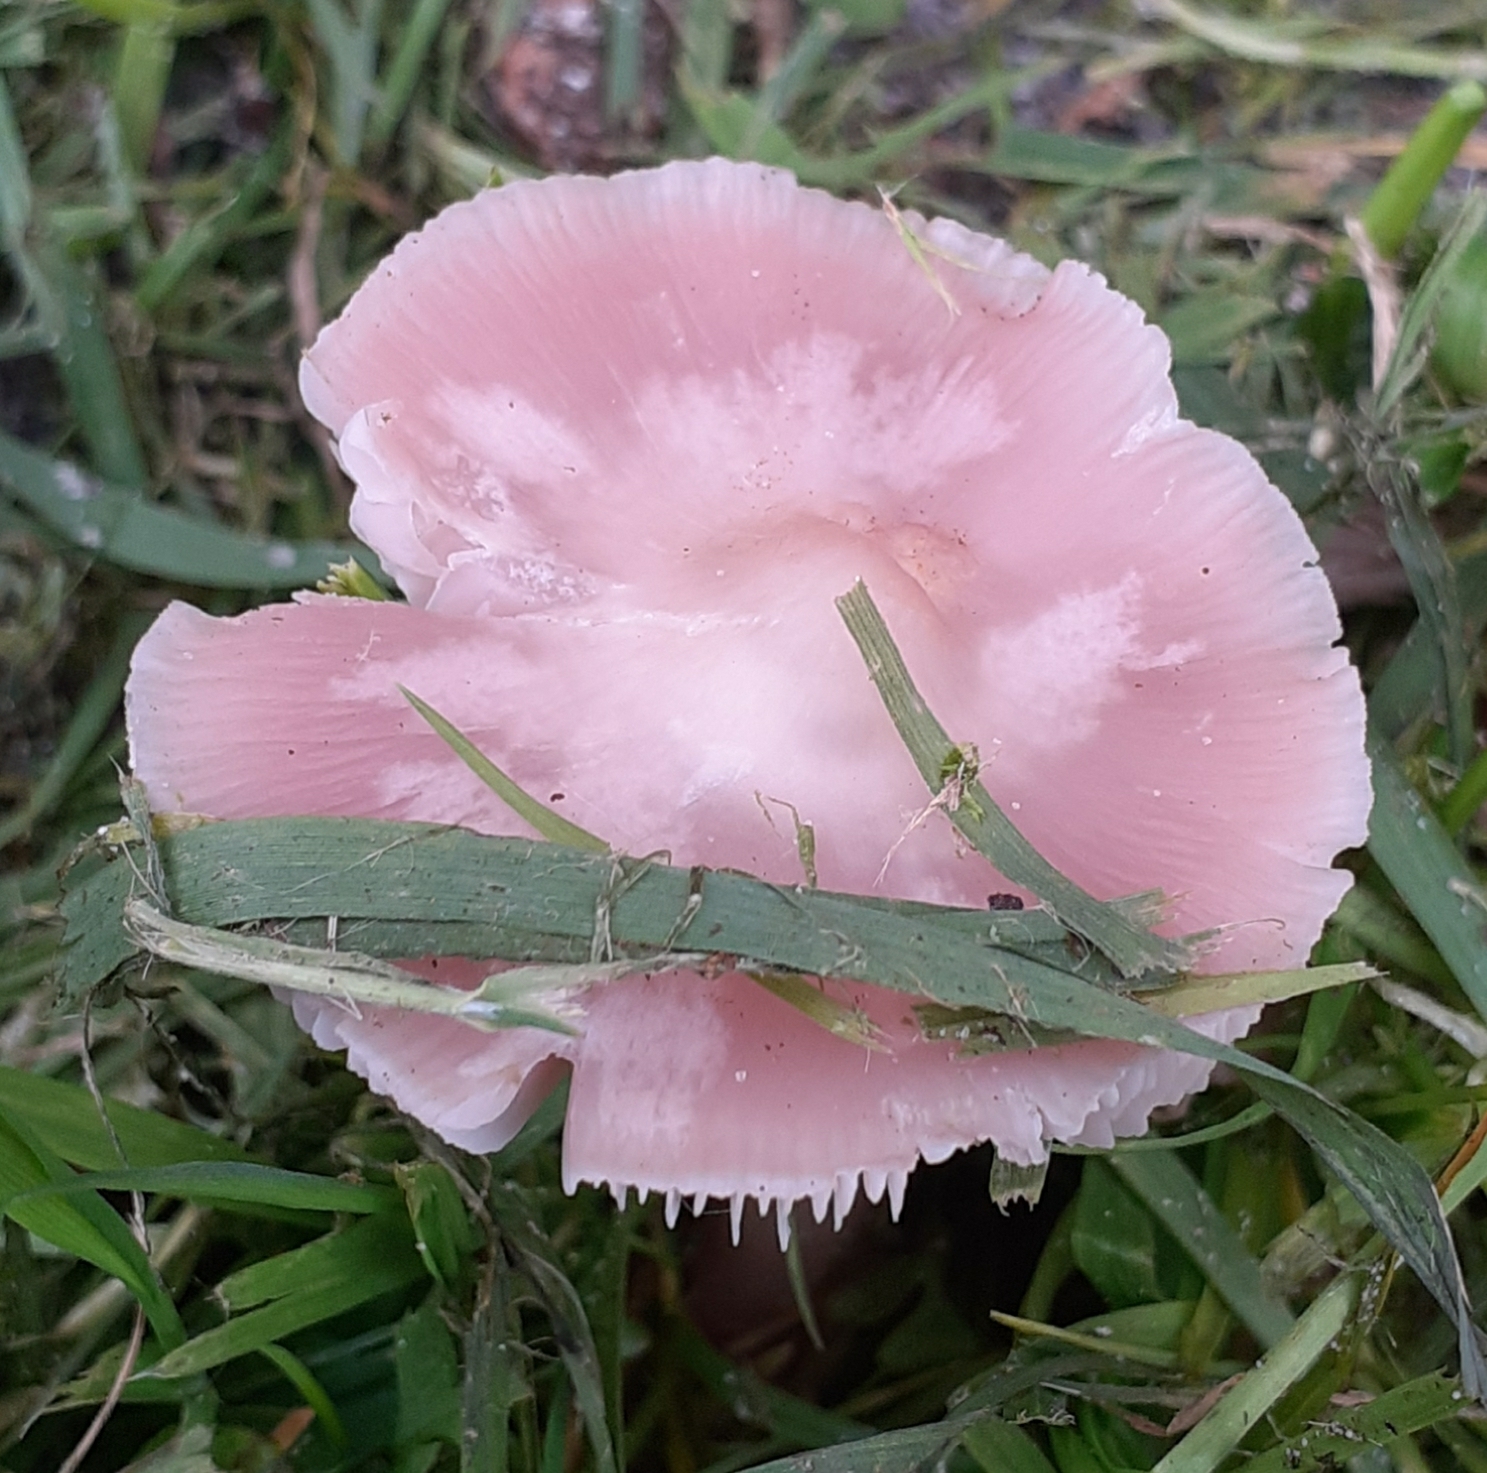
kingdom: Fungi
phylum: Basidiomycota
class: Agaricomycetes
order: Agaricales
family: Mycenaceae
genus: Mycena
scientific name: Mycena rosea
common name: Rosy bonnet
